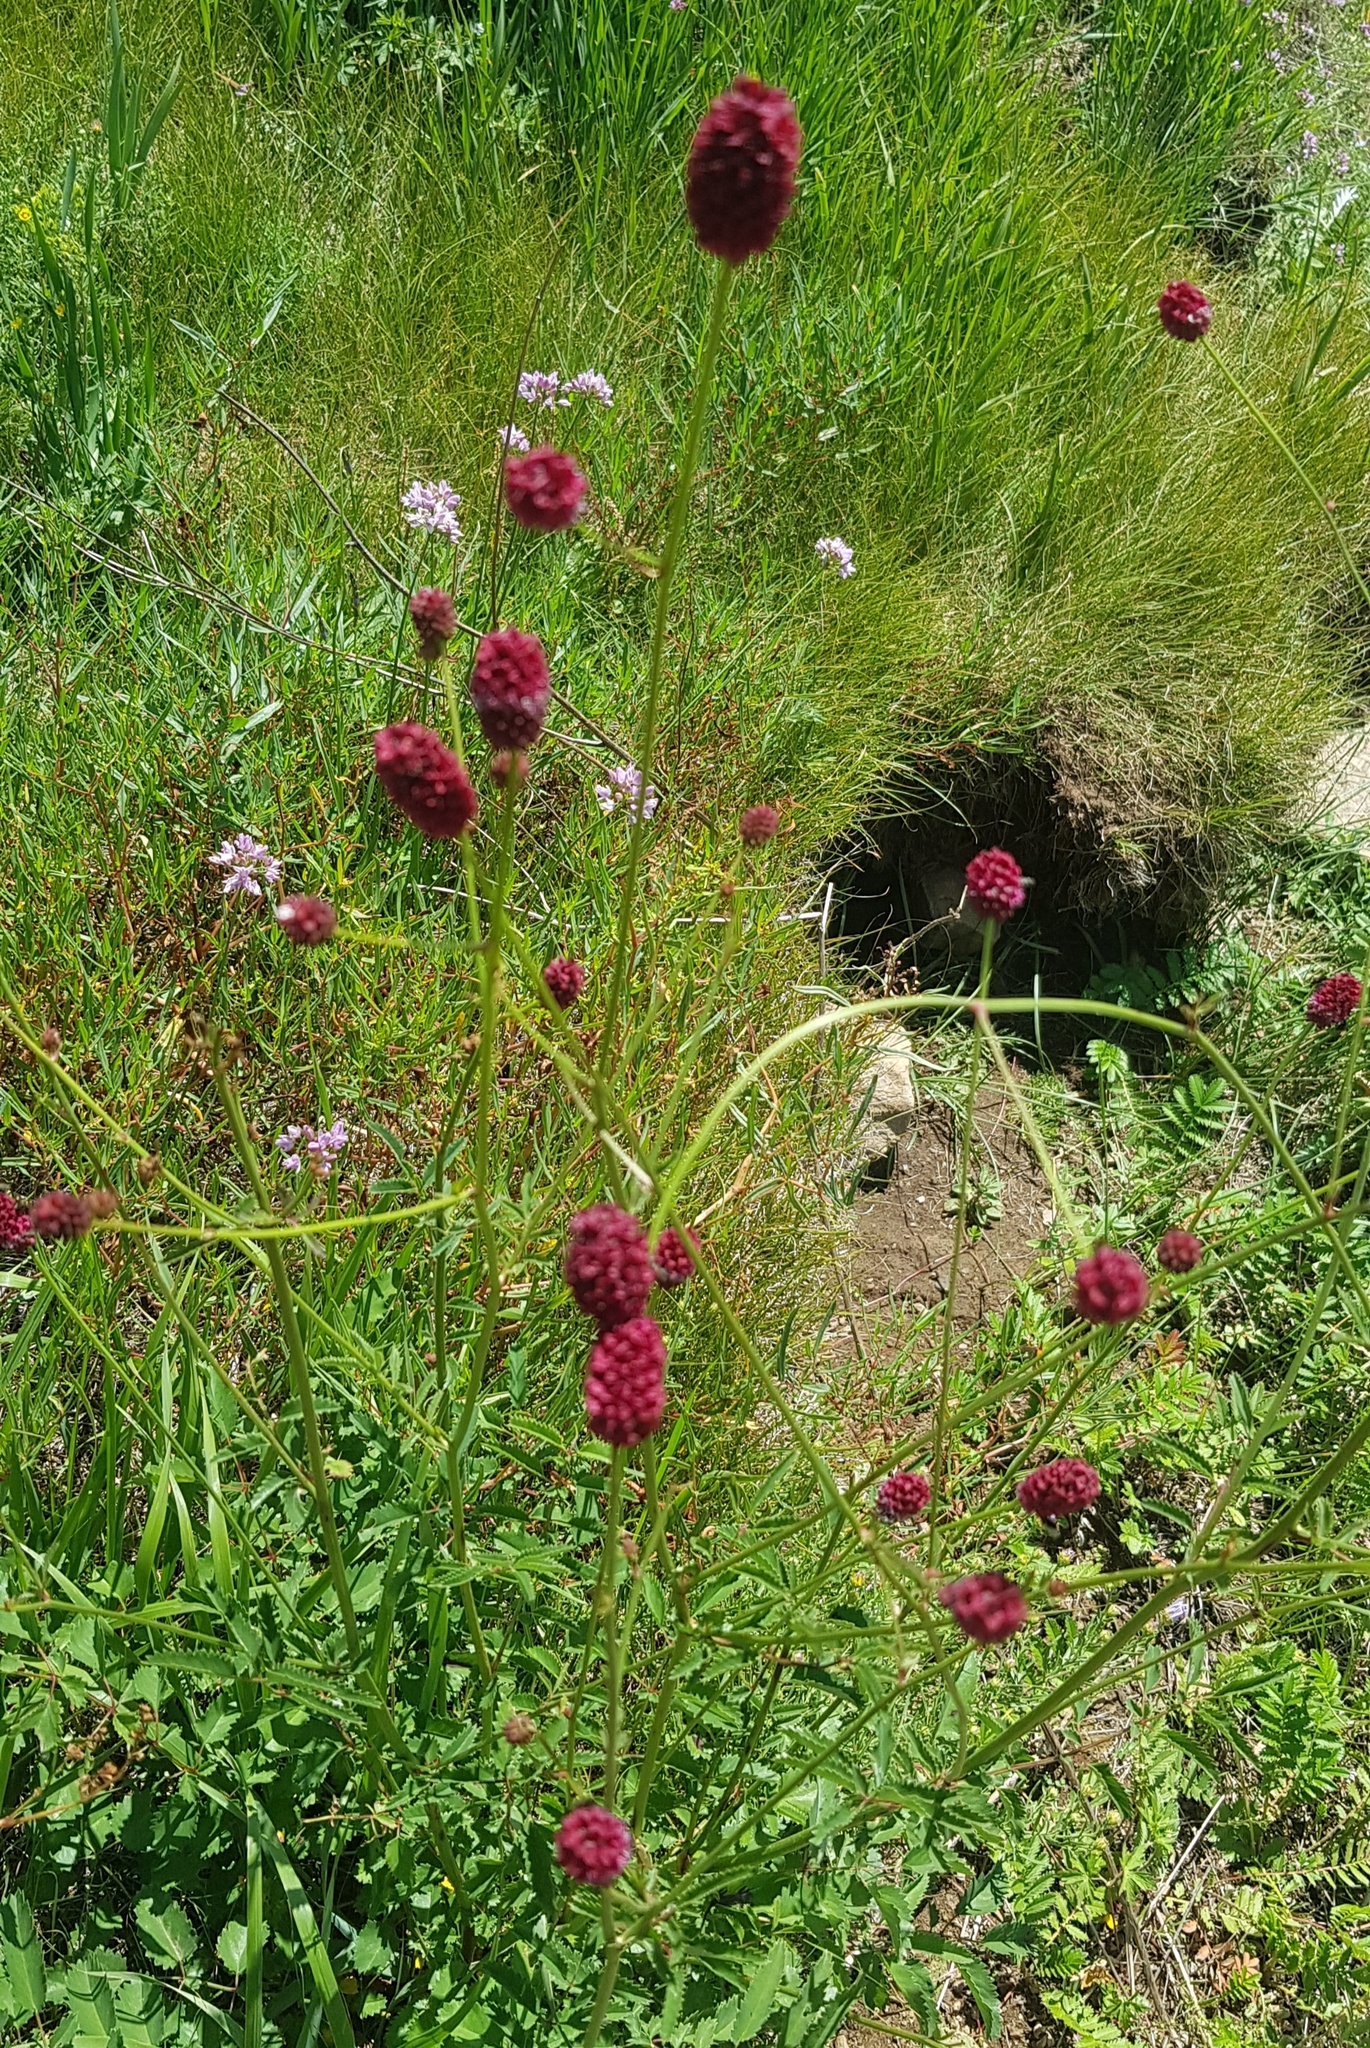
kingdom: Plantae
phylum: Tracheophyta
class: Magnoliopsida
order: Rosales
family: Rosaceae
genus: Sanguisorba
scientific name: Sanguisorba officinalis
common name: Great burnet
